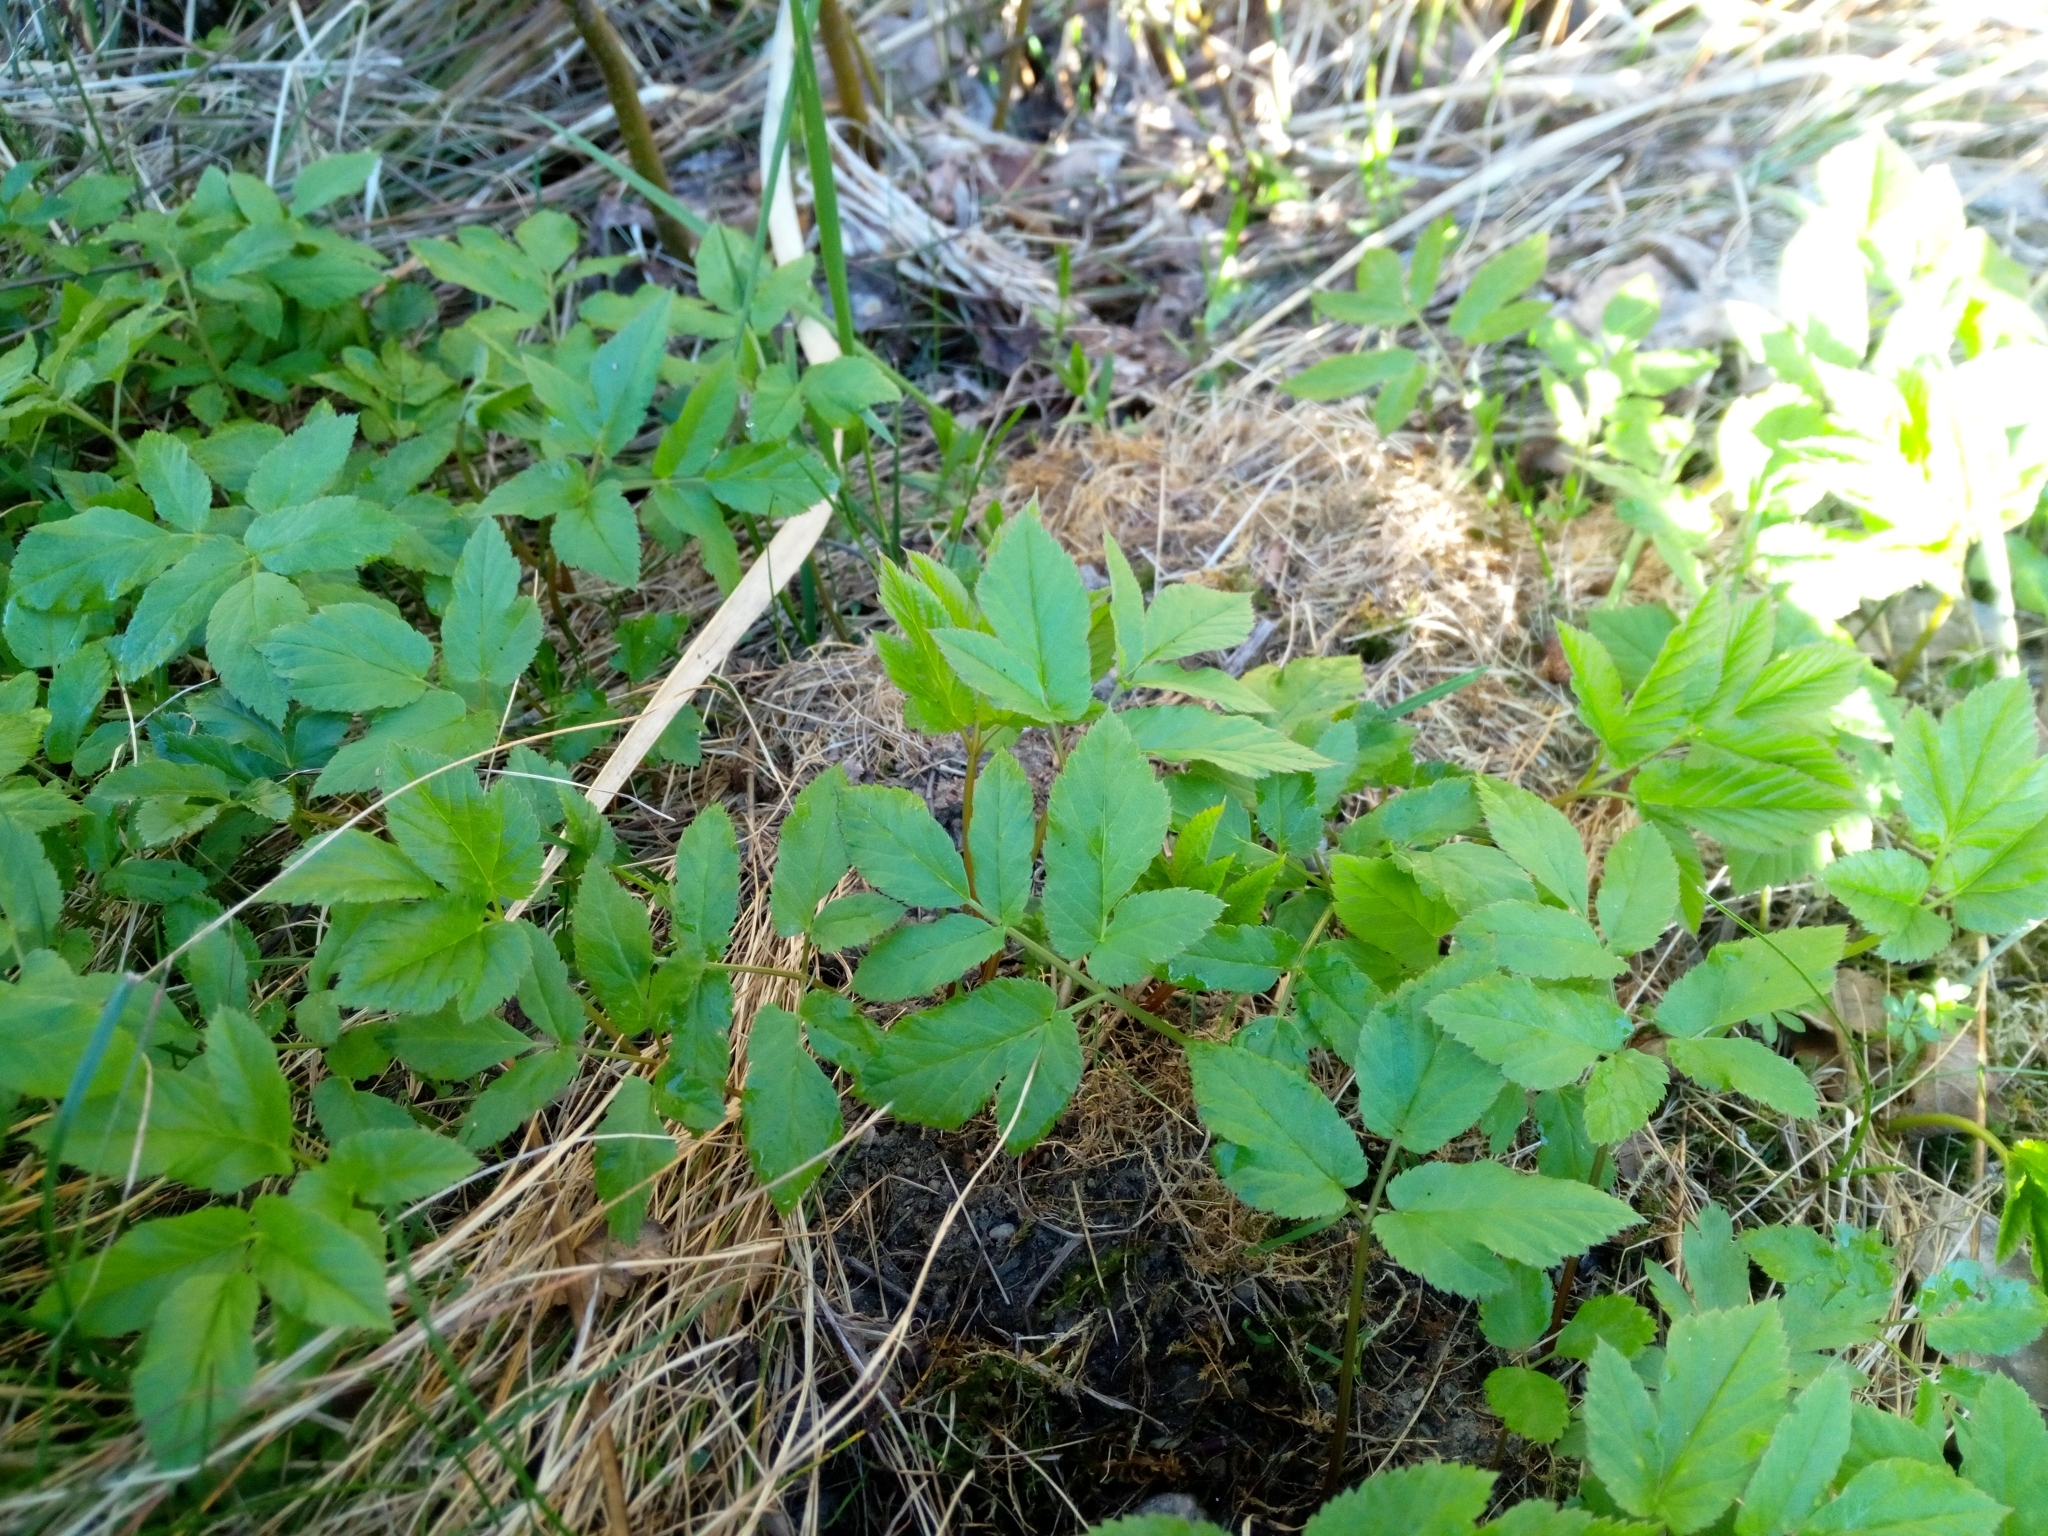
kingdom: Plantae
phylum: Tracheophyta
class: Magnoliopsida
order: Apiales
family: Apiaceae
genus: Aegopodium
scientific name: Aegopodium podagraria
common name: Ground-elder
